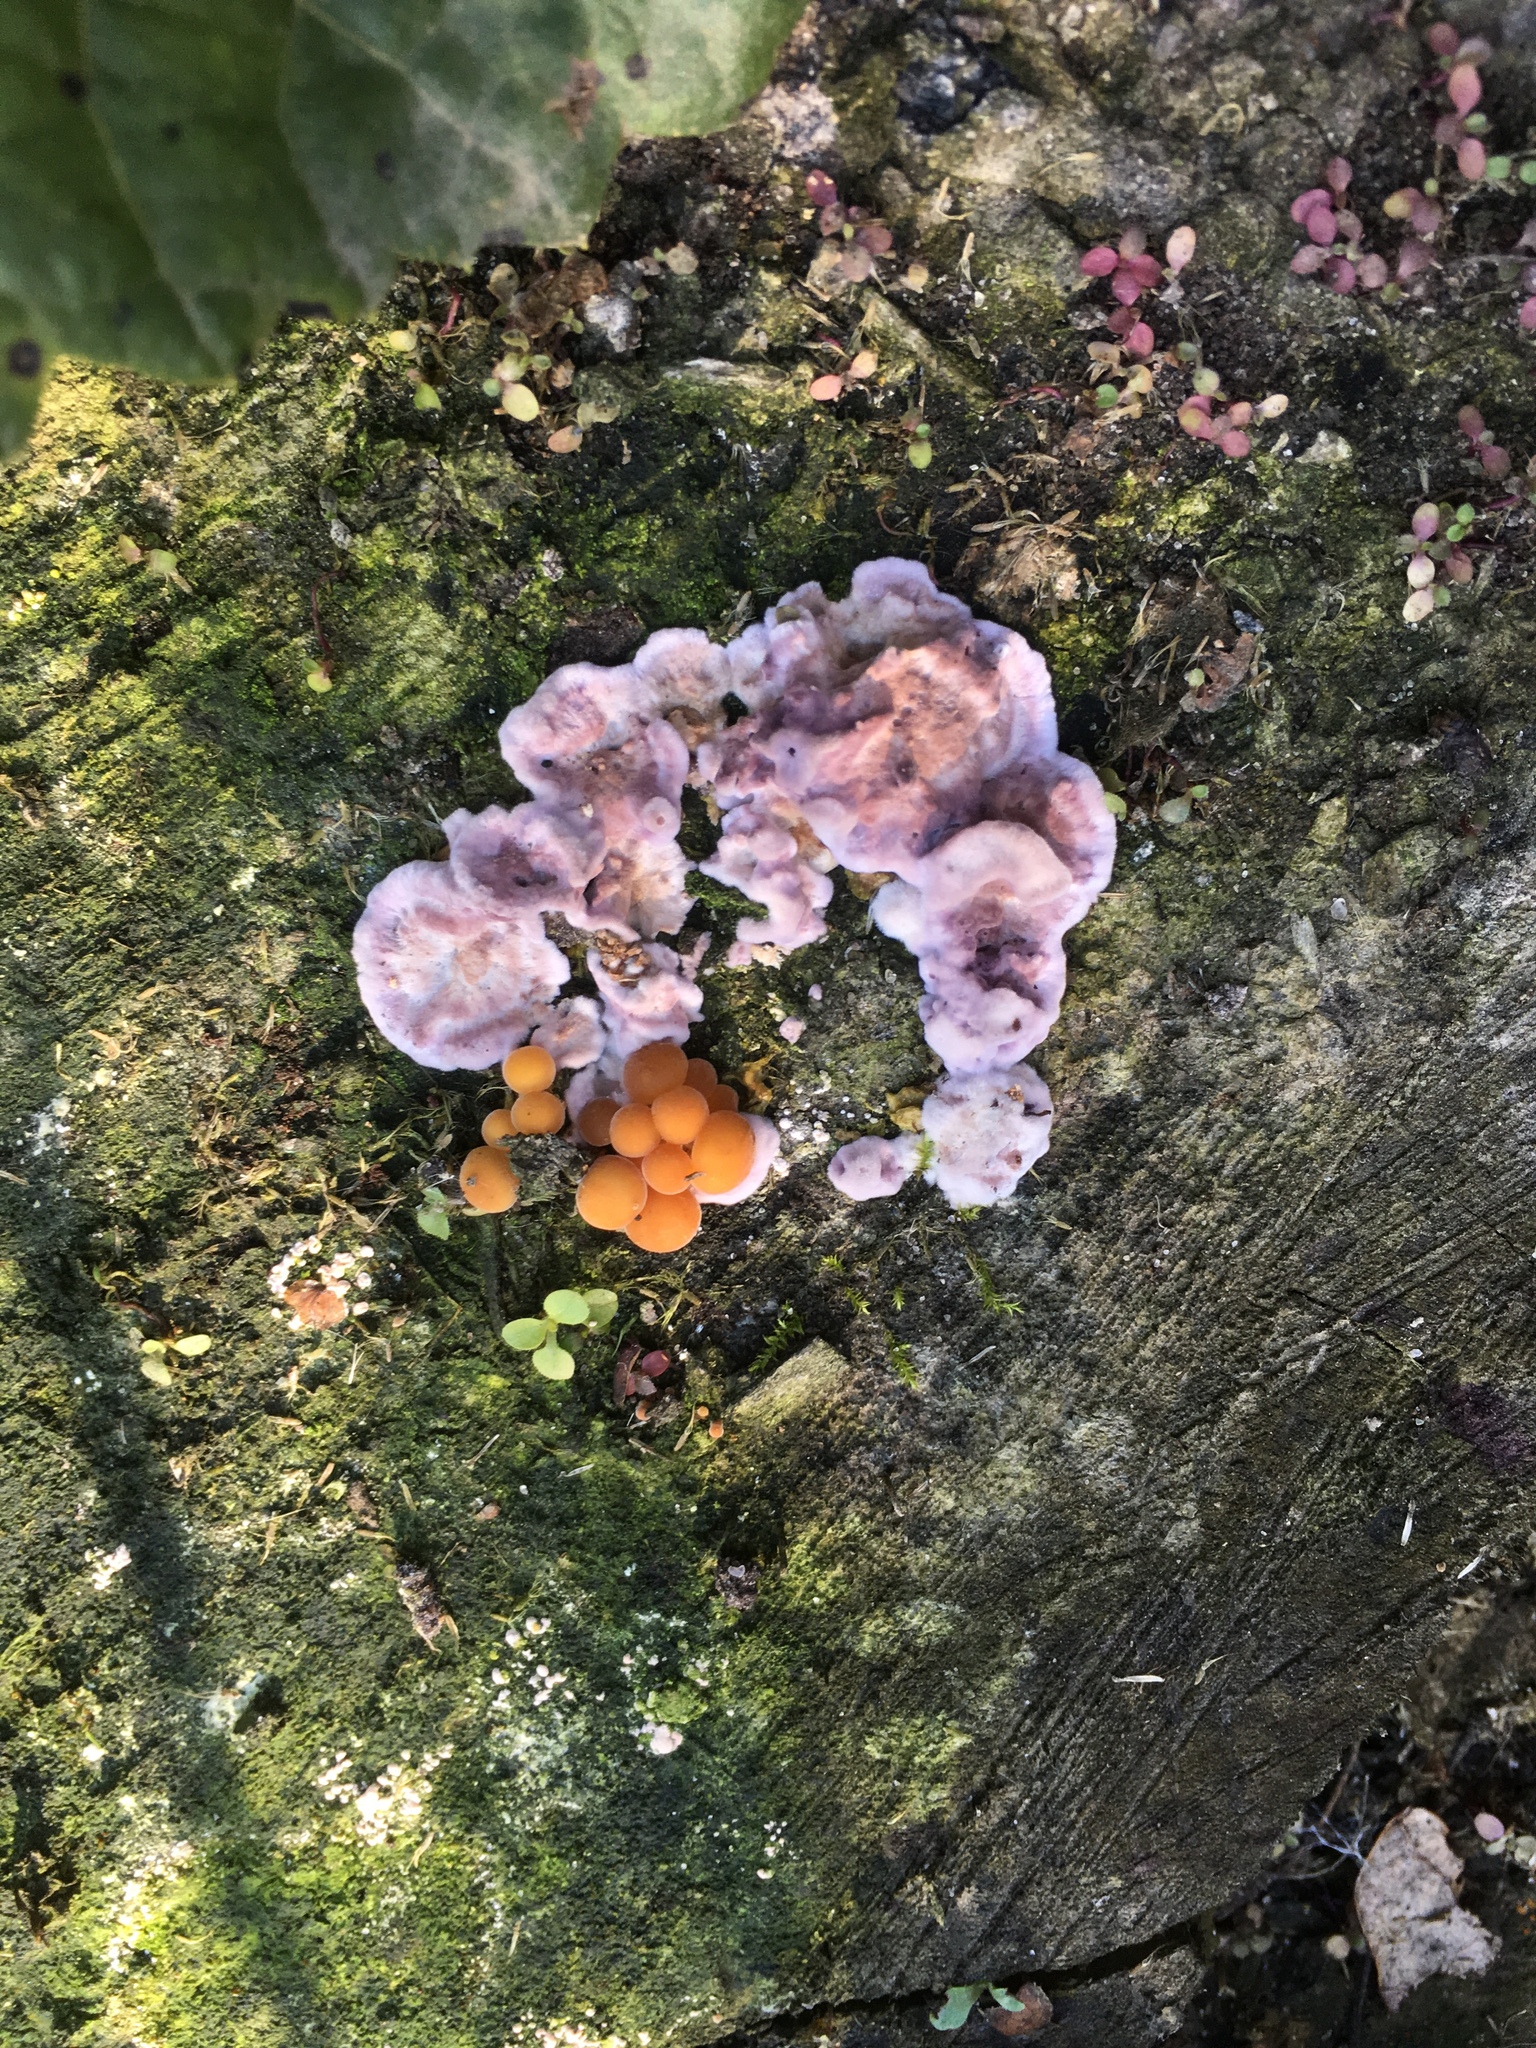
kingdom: Fungi
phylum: Basidiomycota
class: Agaricomycetes
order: Agaricales
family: Cyphellaceae
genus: Chondrostereum
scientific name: Chondrostereum purpureum
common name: Silver leaf disease
